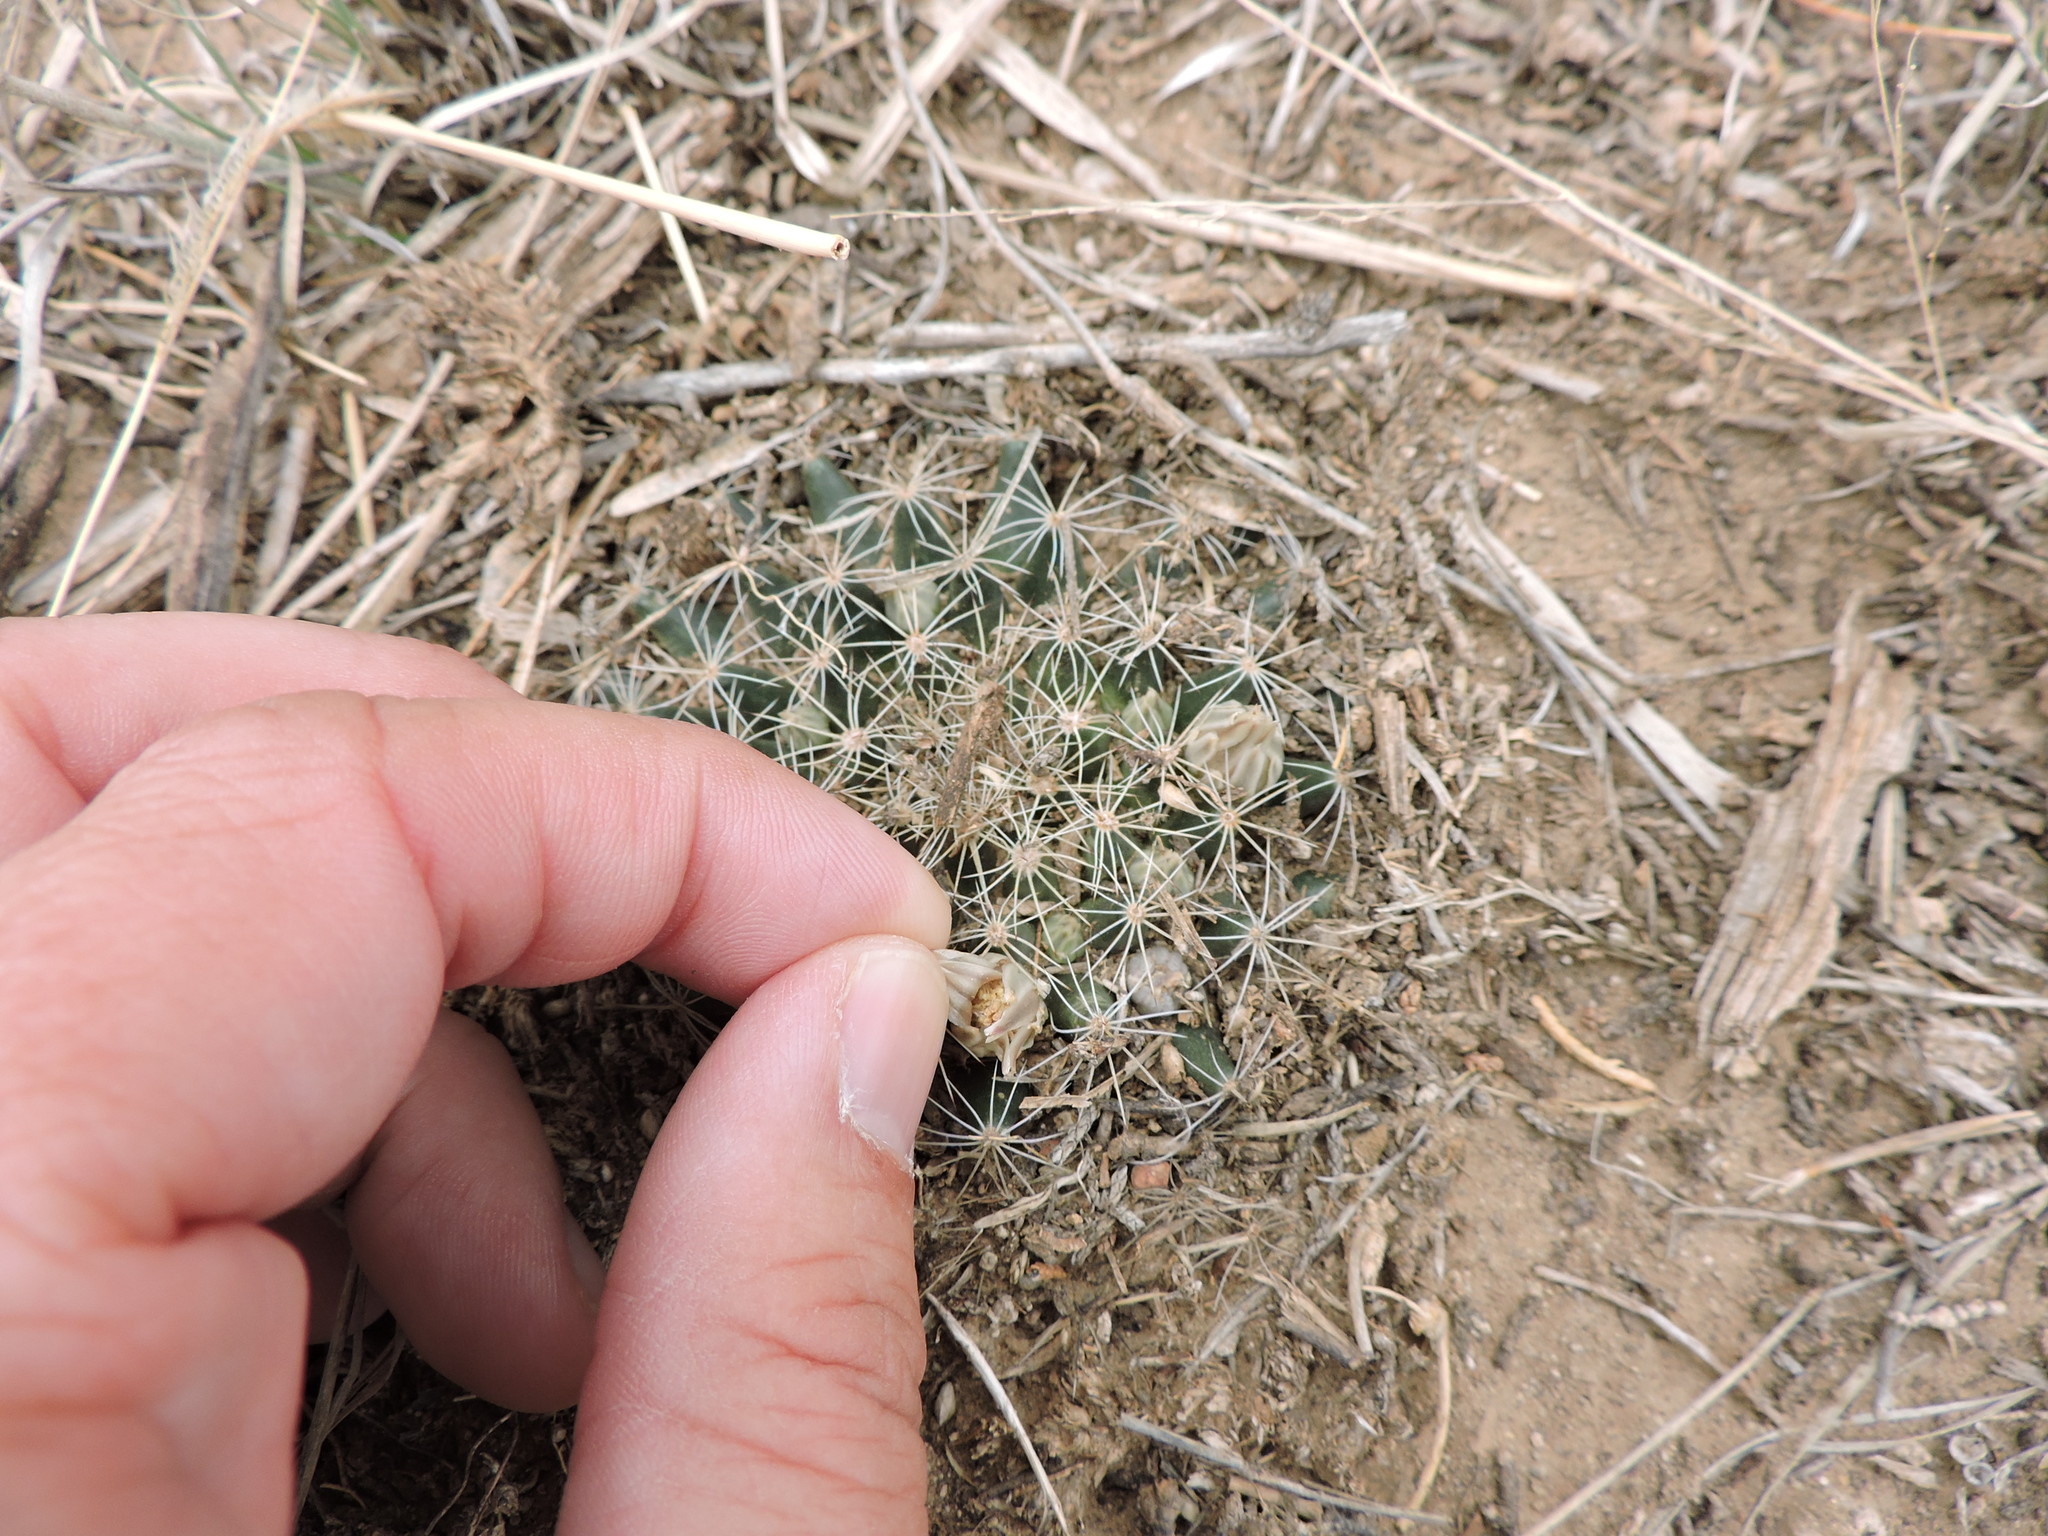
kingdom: Plantae
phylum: Tracheophyta
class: Magnoliopsida
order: Caryophyllales
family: Cactaceae
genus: Mammillaria
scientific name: Mammillaria heyderi
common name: Little nipple cactus
